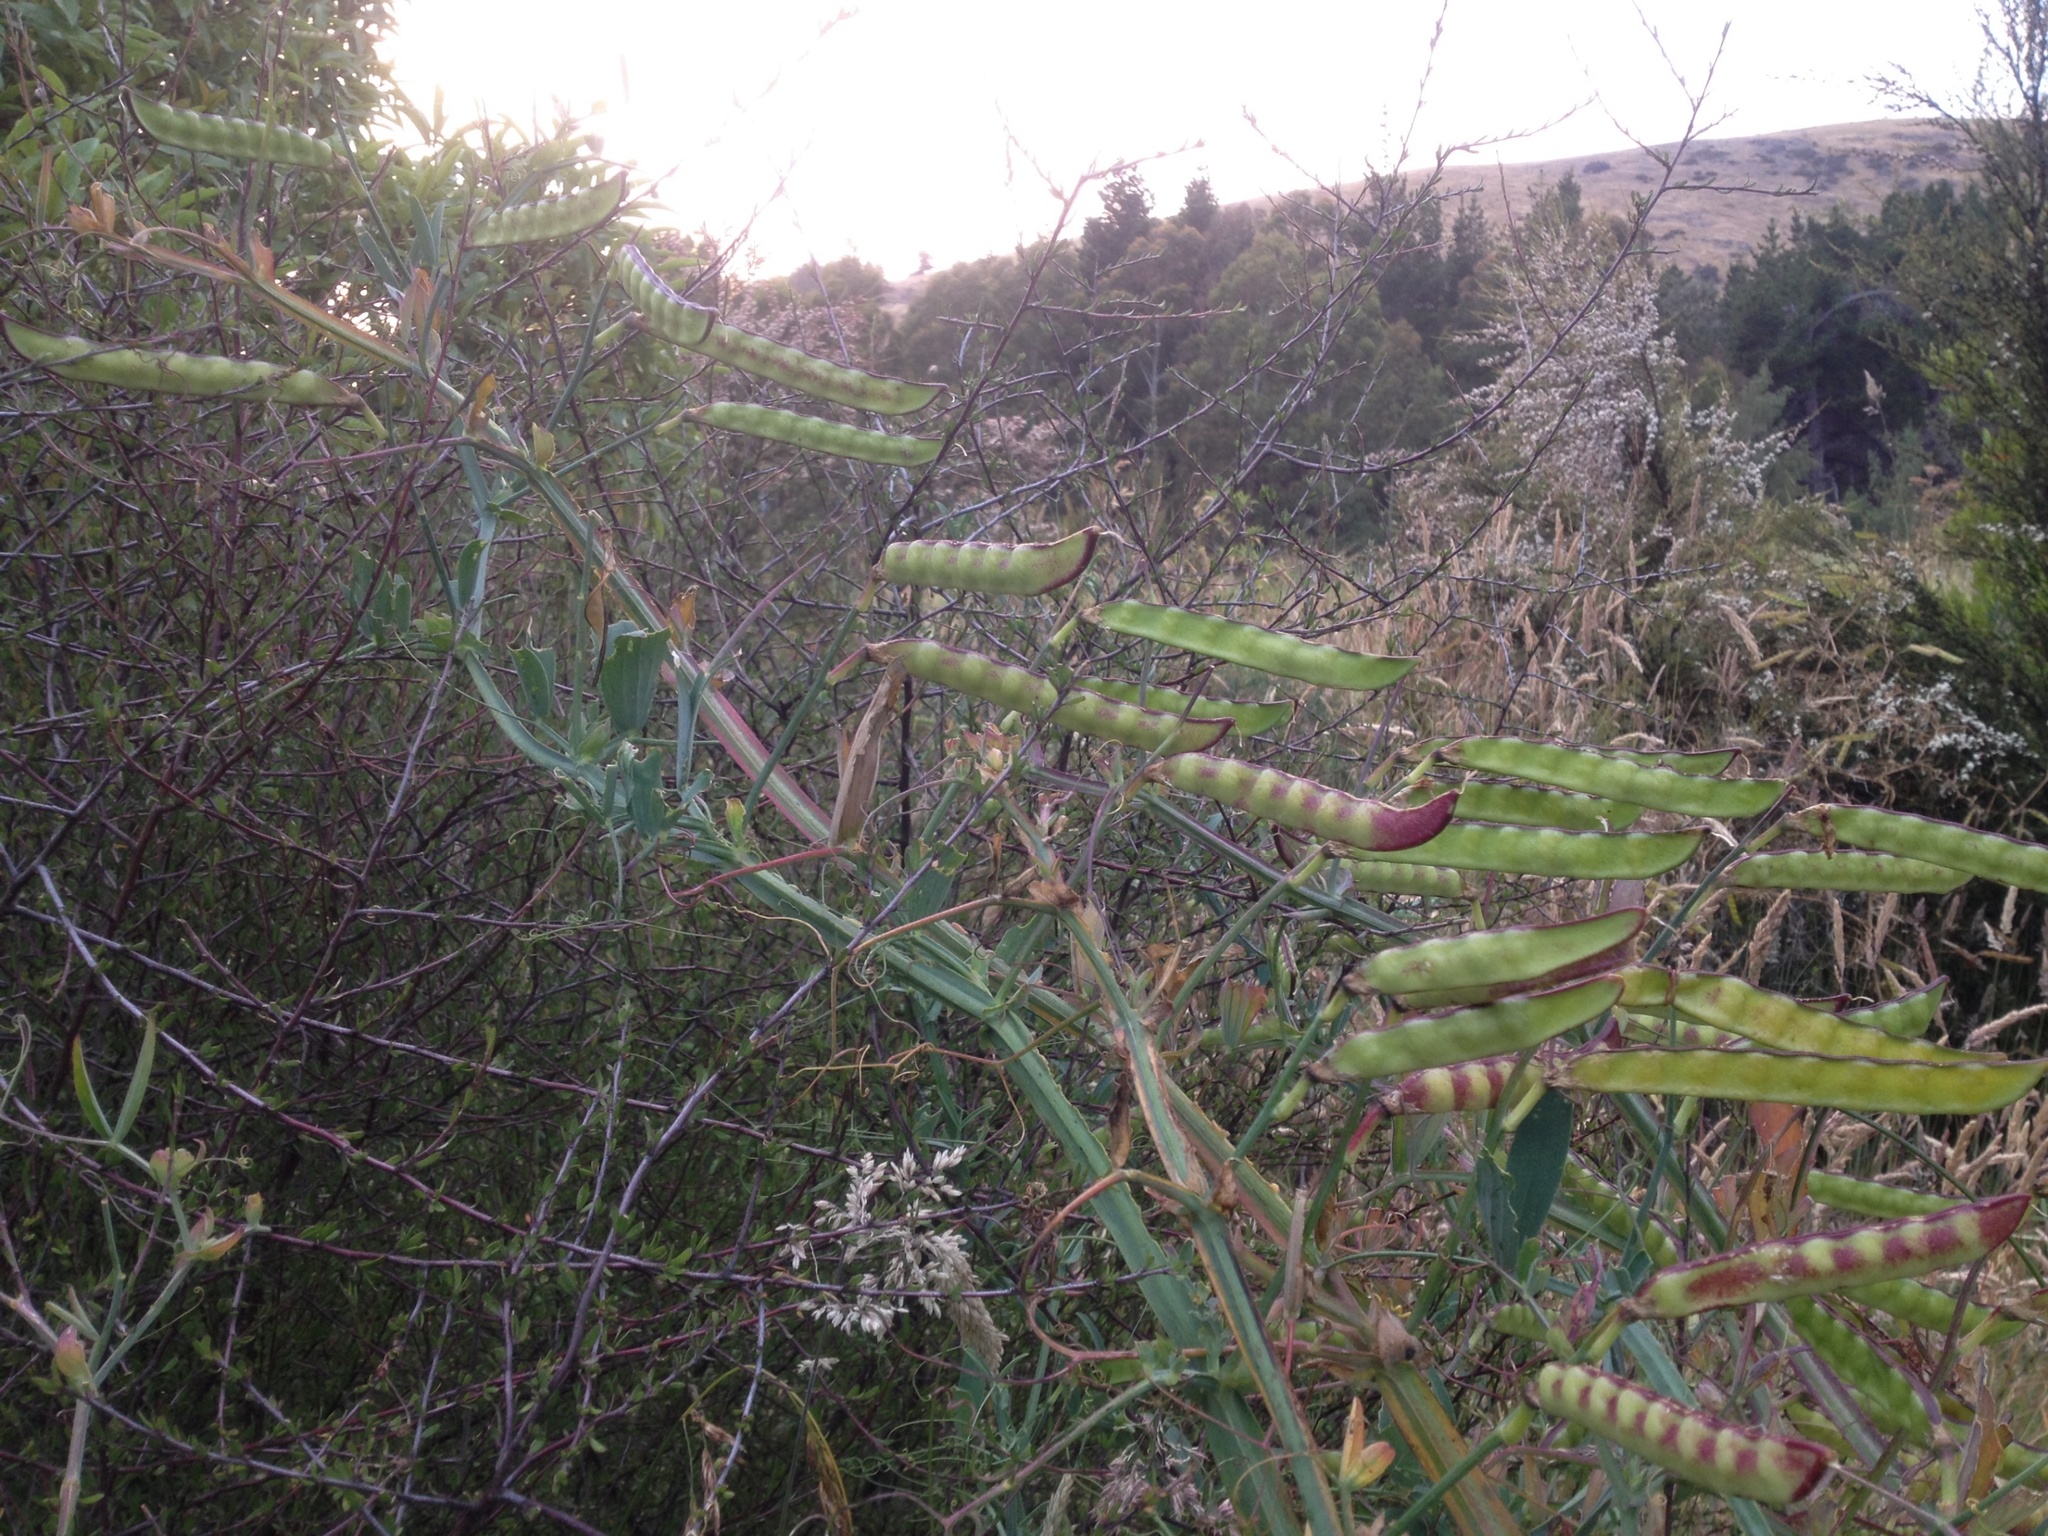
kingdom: Plantae
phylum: Tracheophyta
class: Magnoliopsida
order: Fabales
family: Fabaceae
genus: Lathyrus
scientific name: Lathyrus tingitanus
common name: Tangier pea
